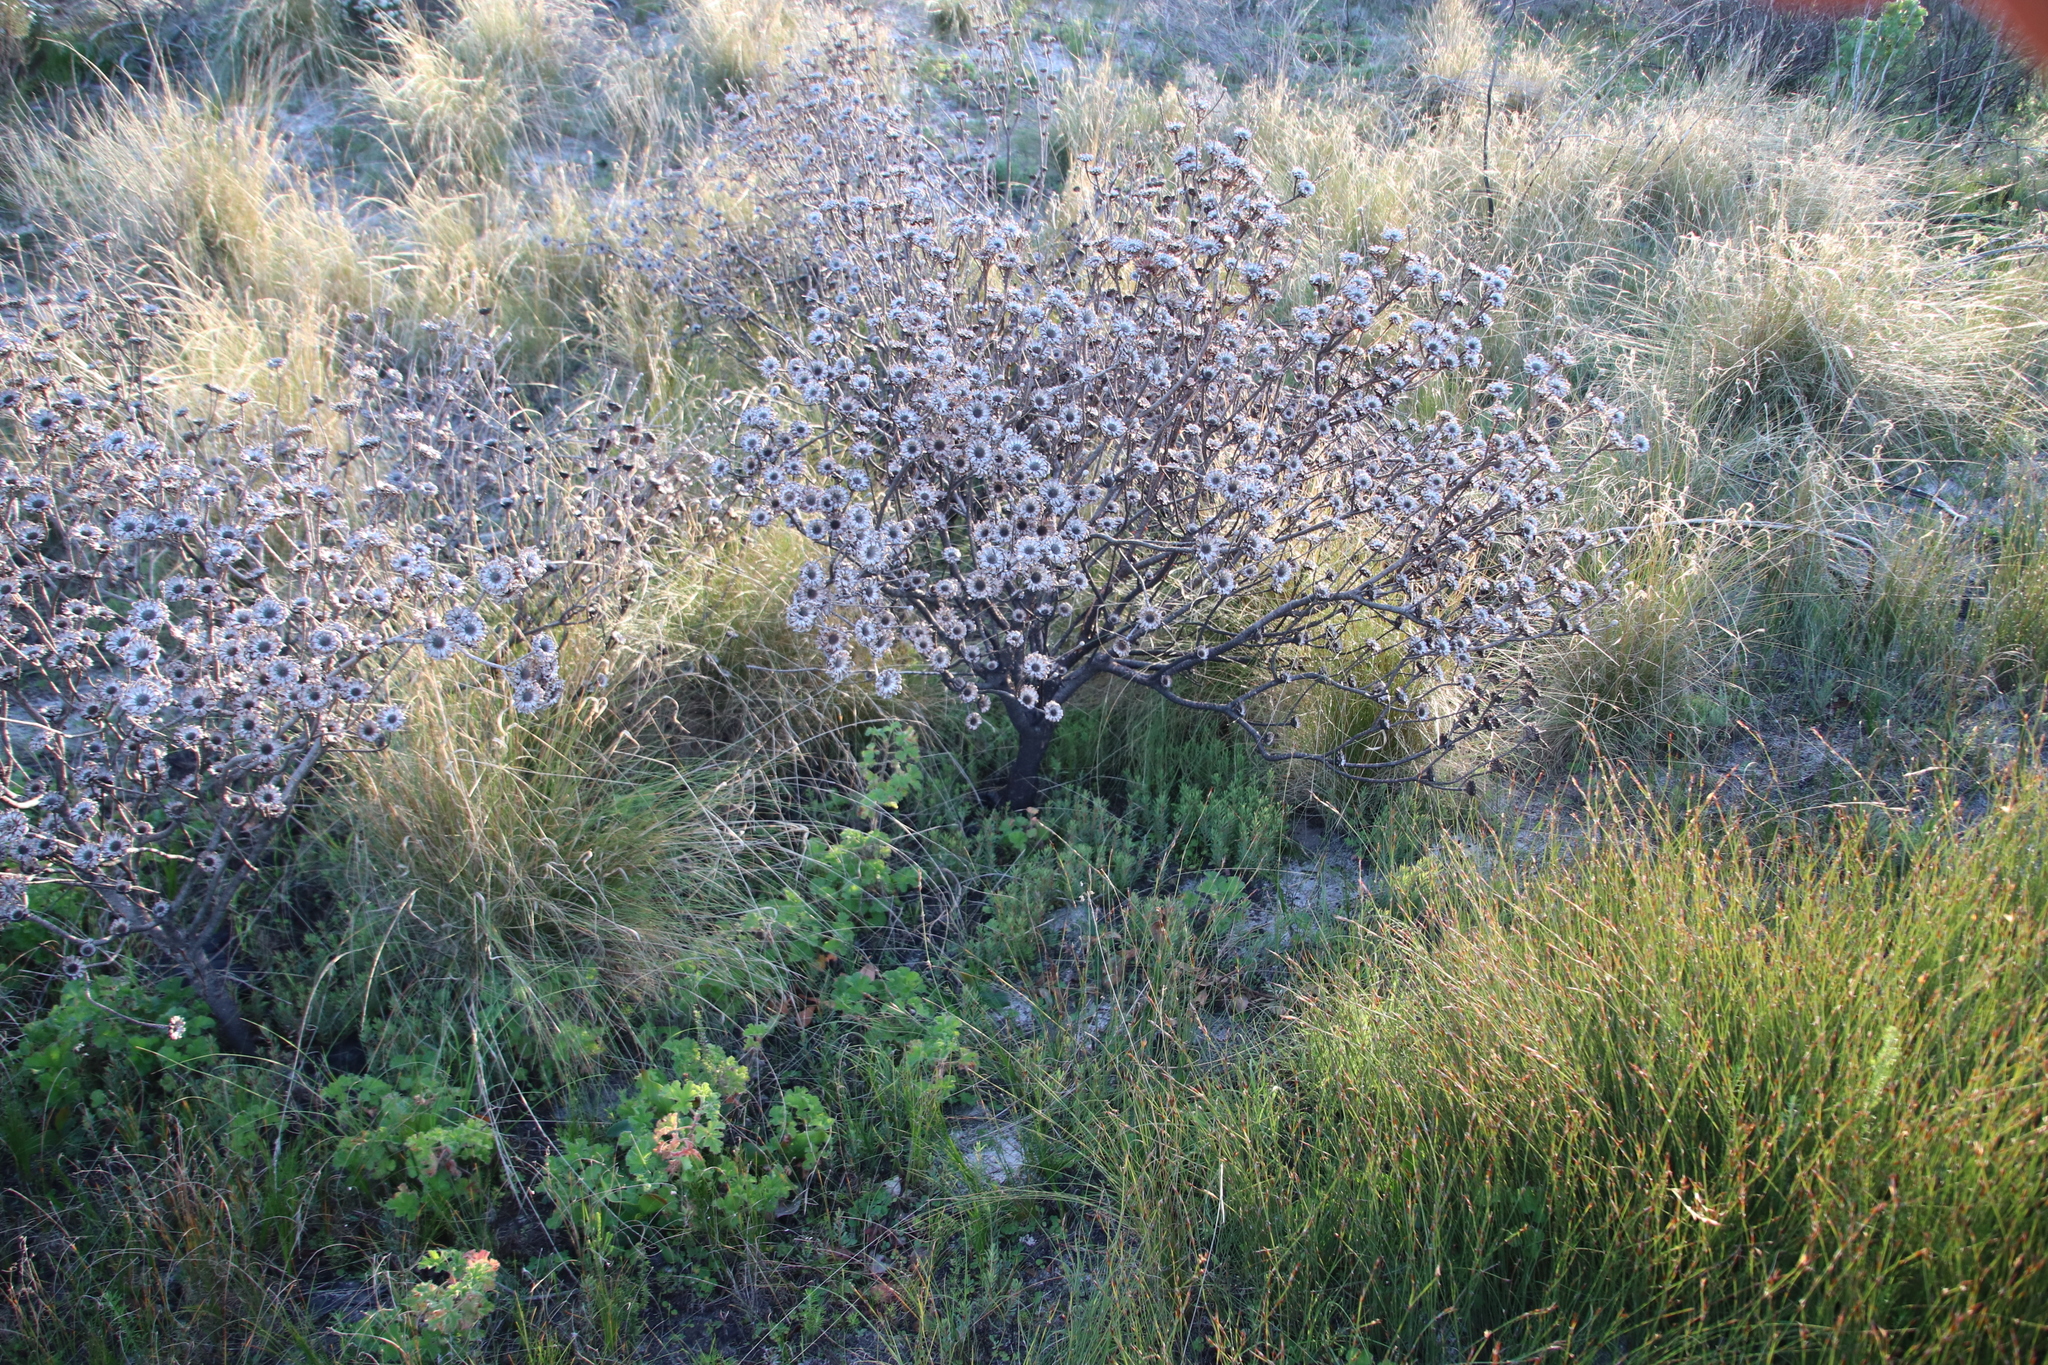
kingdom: Plantae
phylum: Tracheophyta
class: Magnoliopsida
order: Proteales
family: Proteaceae
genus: Protea
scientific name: Protea scolymocephala
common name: Thistle sugarbush
